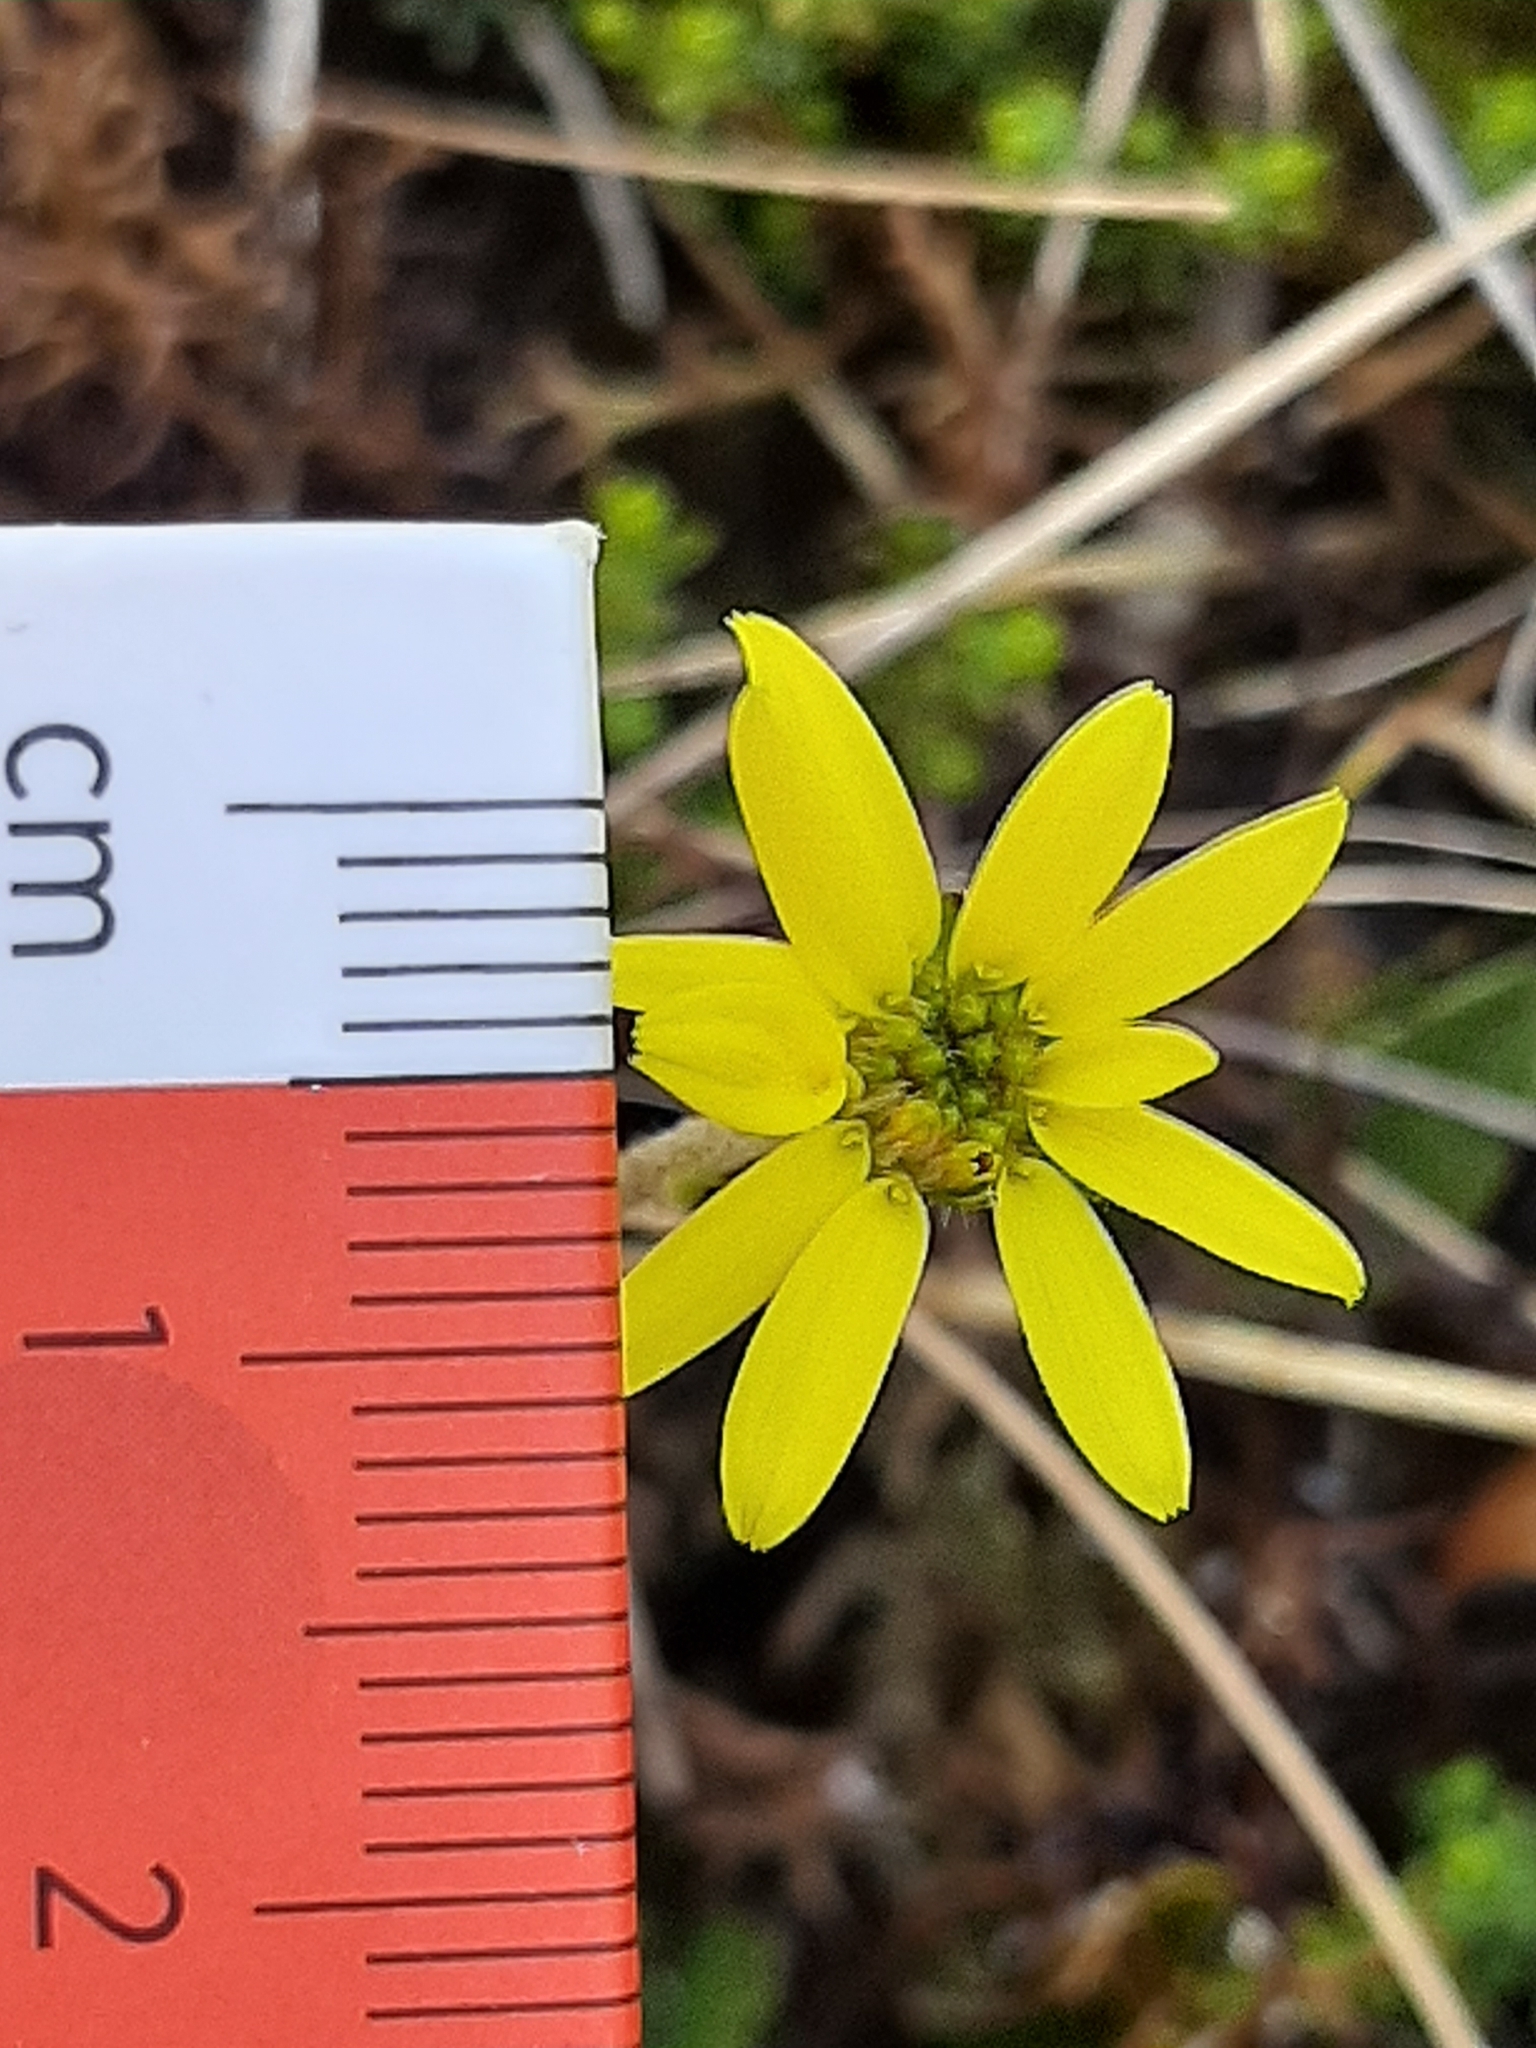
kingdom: Plantae
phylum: Tracheophyta
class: Magnoliopsida
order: Asterales
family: Asteraceae
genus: Brachyglottis
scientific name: Brachyglottis lagopus
